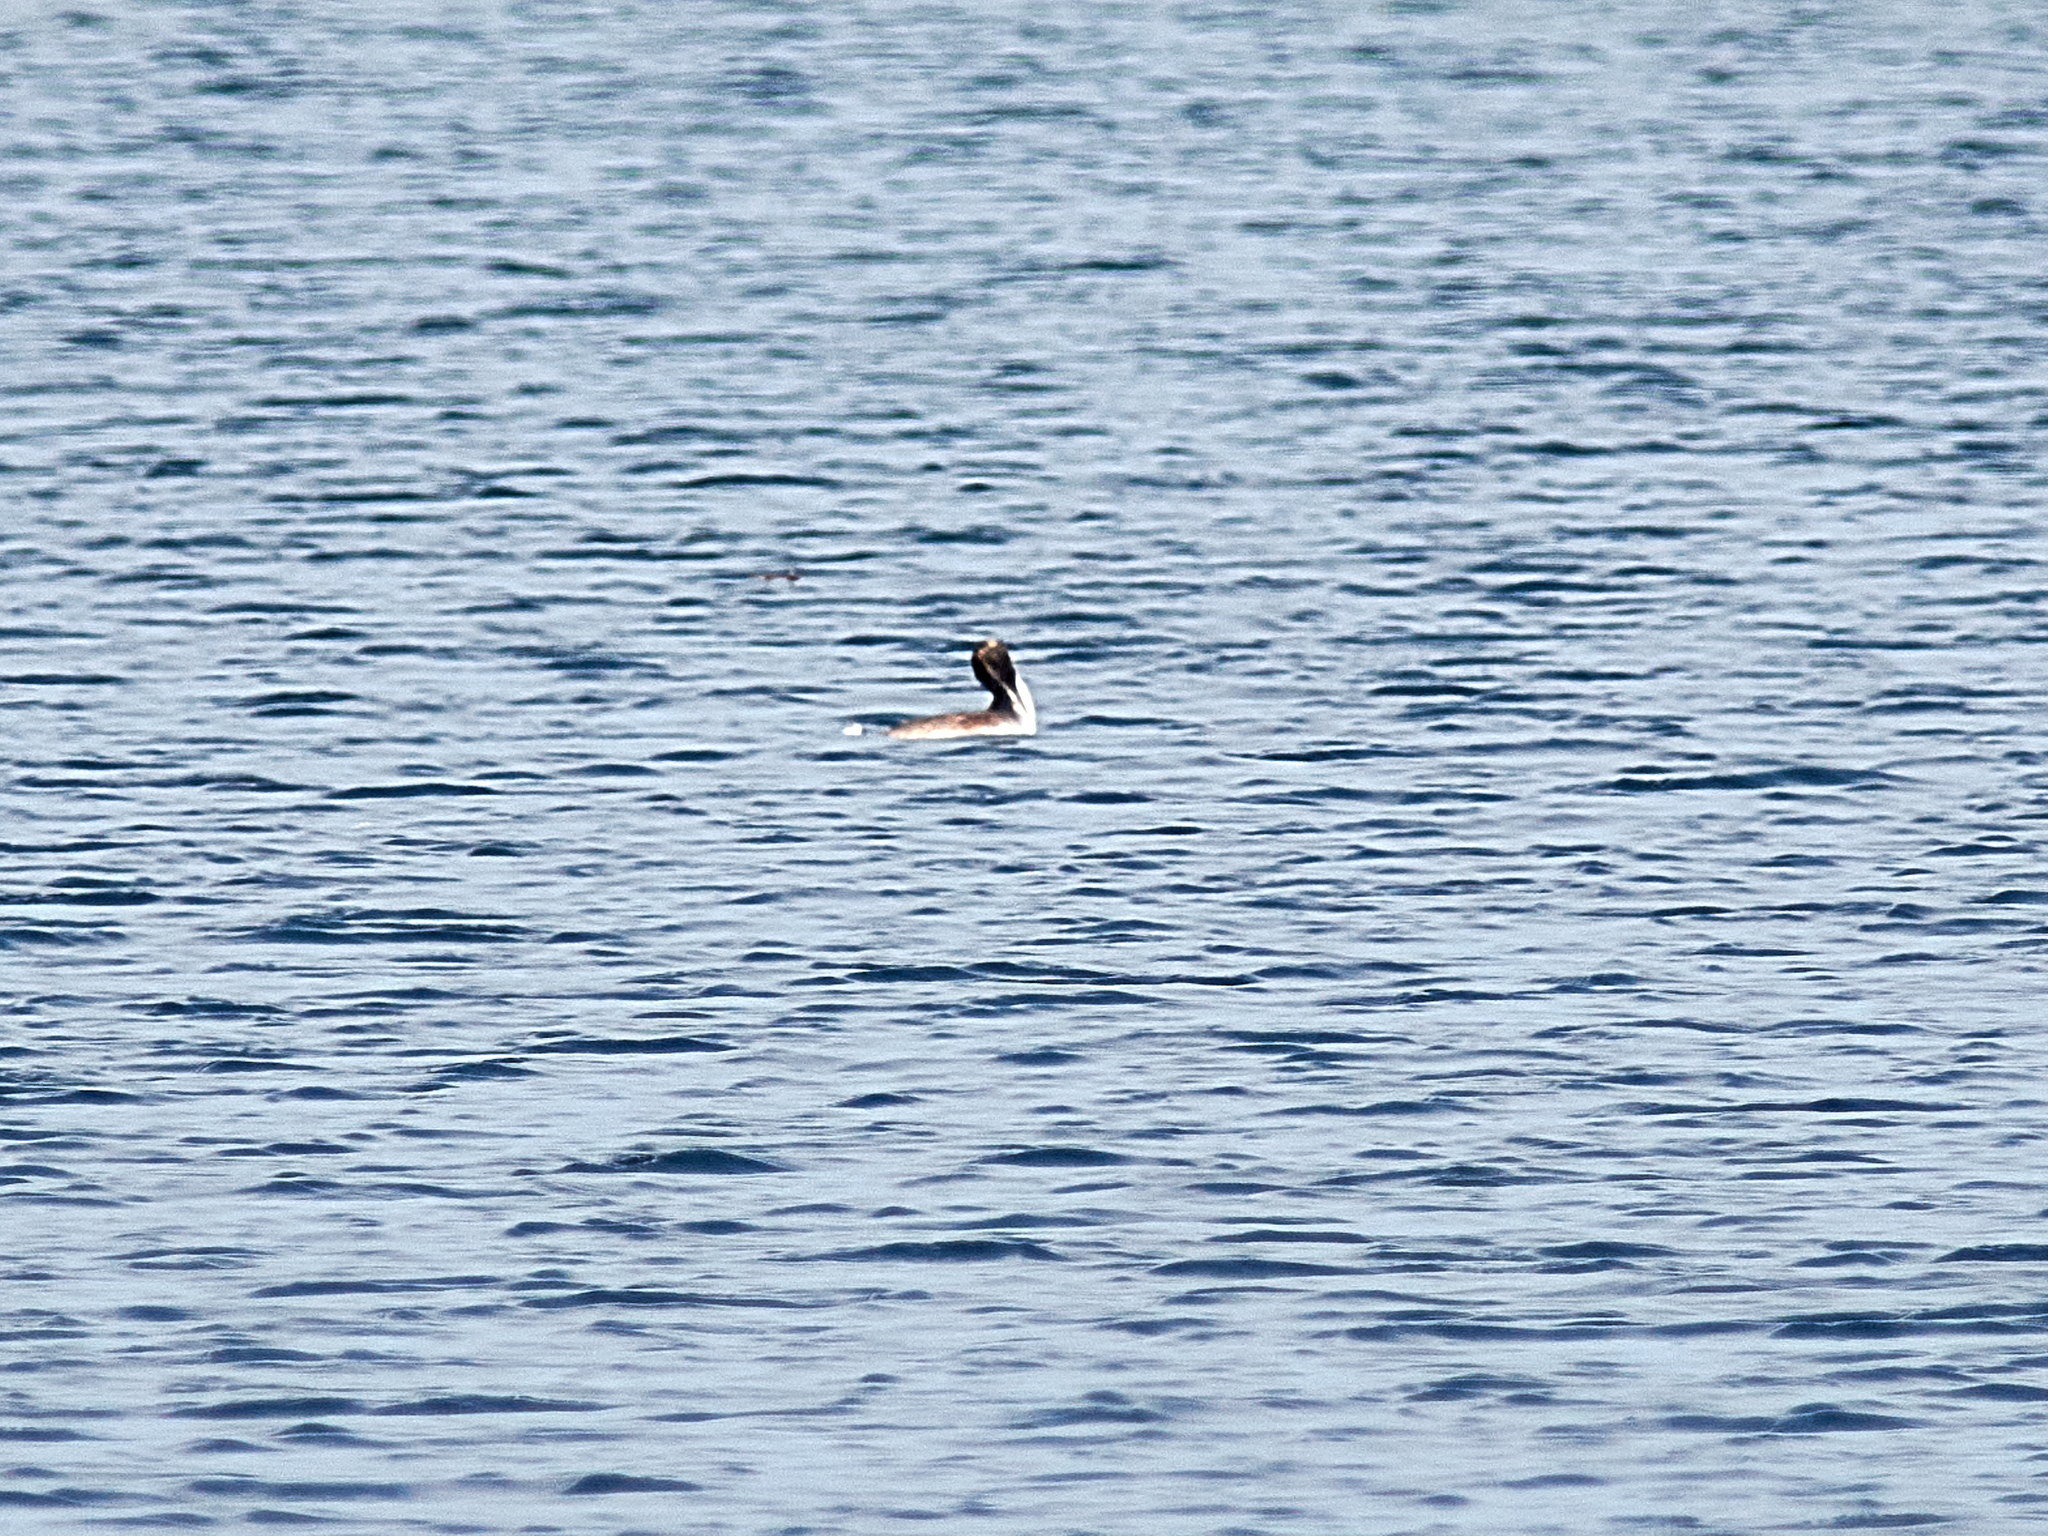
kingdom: Animalia
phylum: Chordata
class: Aves
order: Podicipediformes
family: Podicipedidae
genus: Podiceps
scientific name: Podiceps cristatus
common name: Great crested grebe
